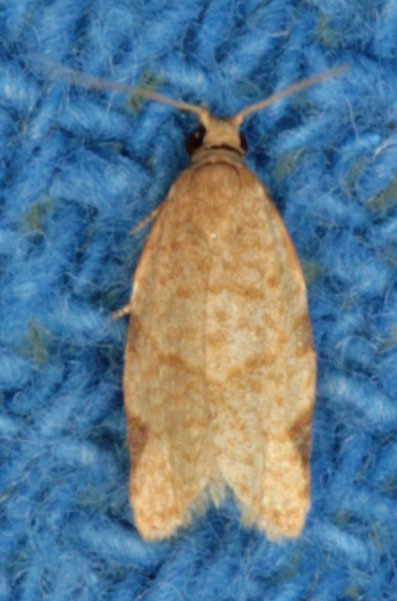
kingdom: Animalia
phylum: Arthropoda
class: Insecta
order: Lepidoptera
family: Tortricidae
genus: Clepsis
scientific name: Clepsis virescana
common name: Greenish apple moth
